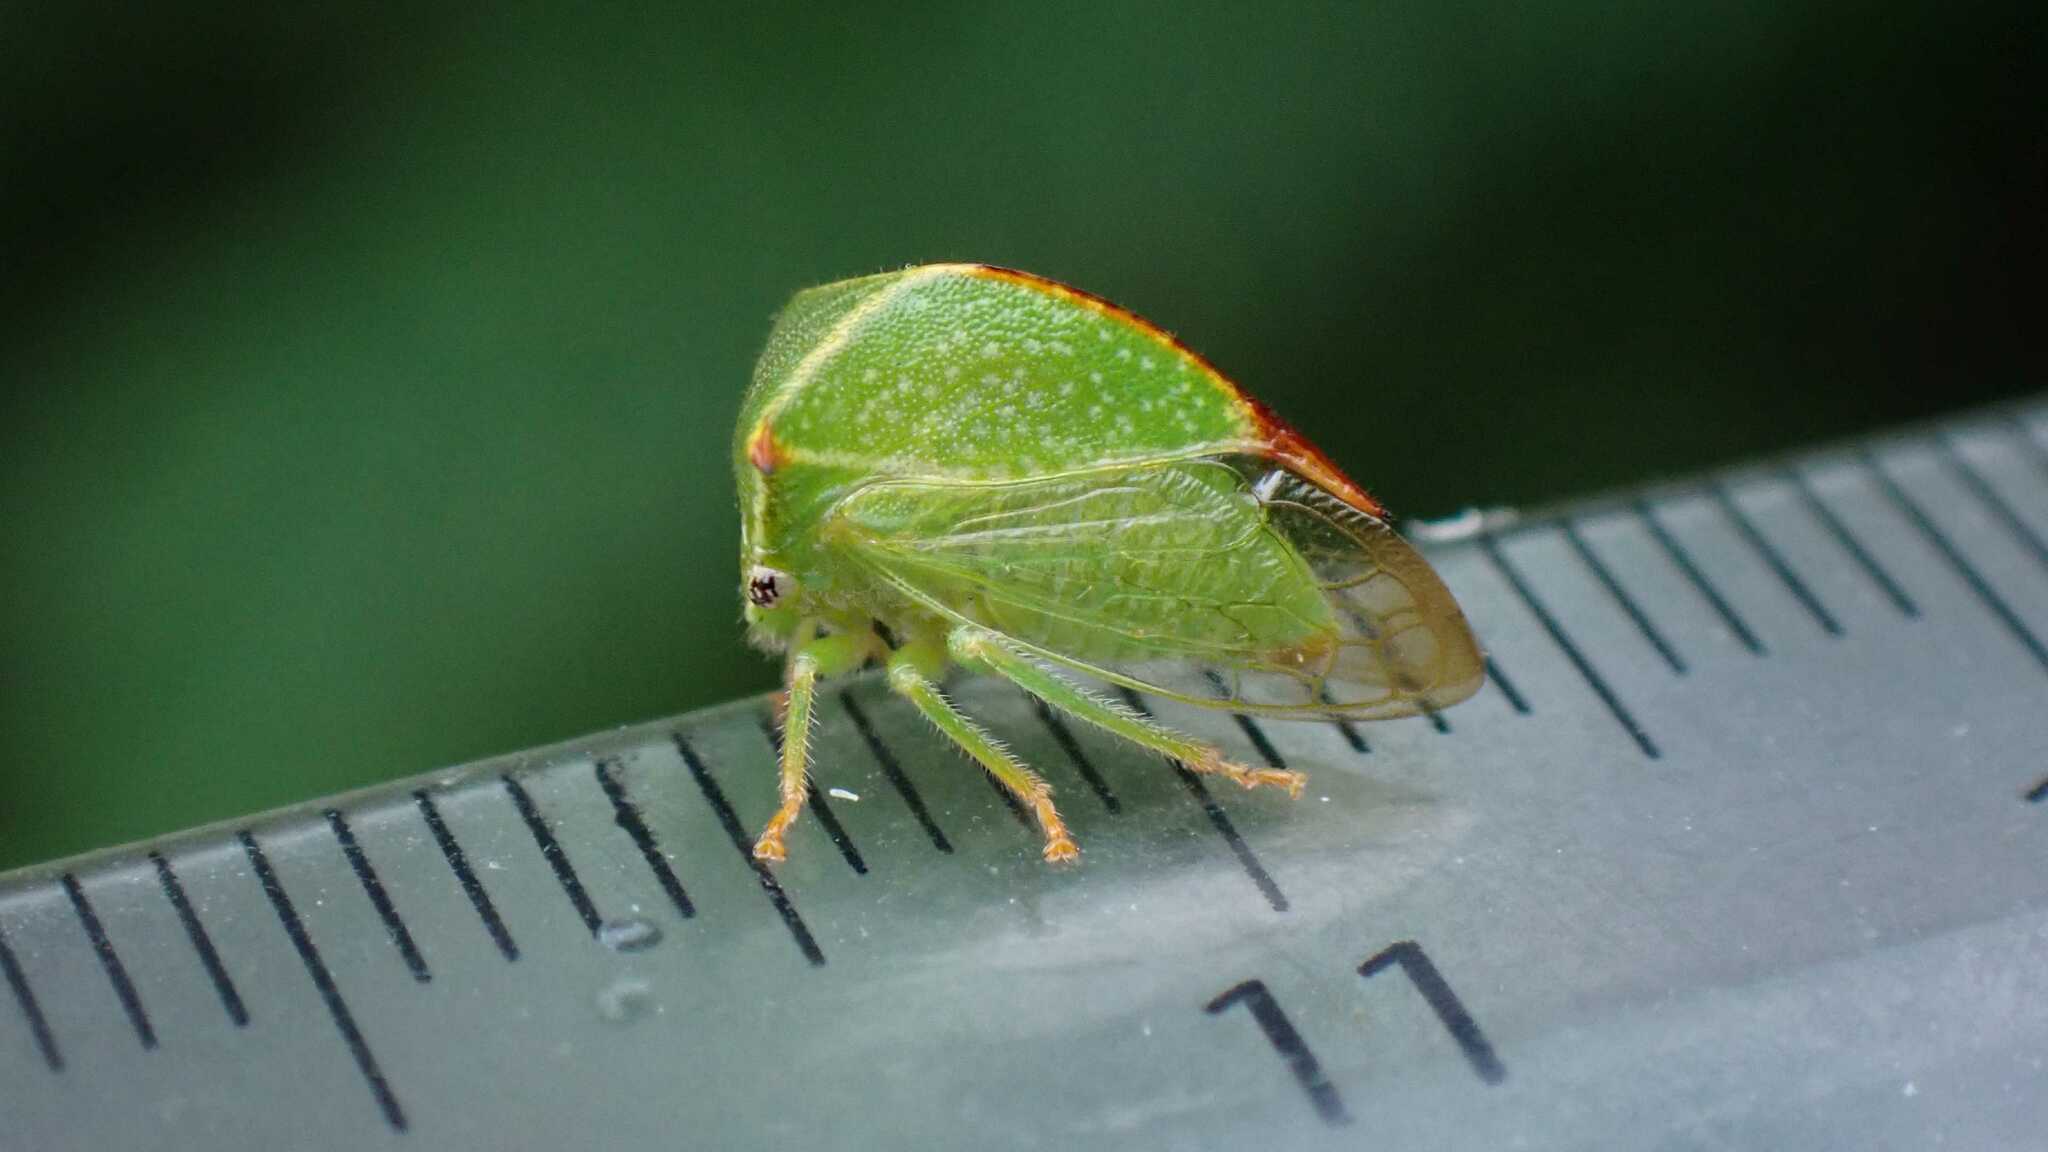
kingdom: Animalia
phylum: Arthropoda
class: Insecta
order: Hemiptera
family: Membracidae
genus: Stictocephala
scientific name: Stictocephala bisonia
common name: American buffalo treehopper
